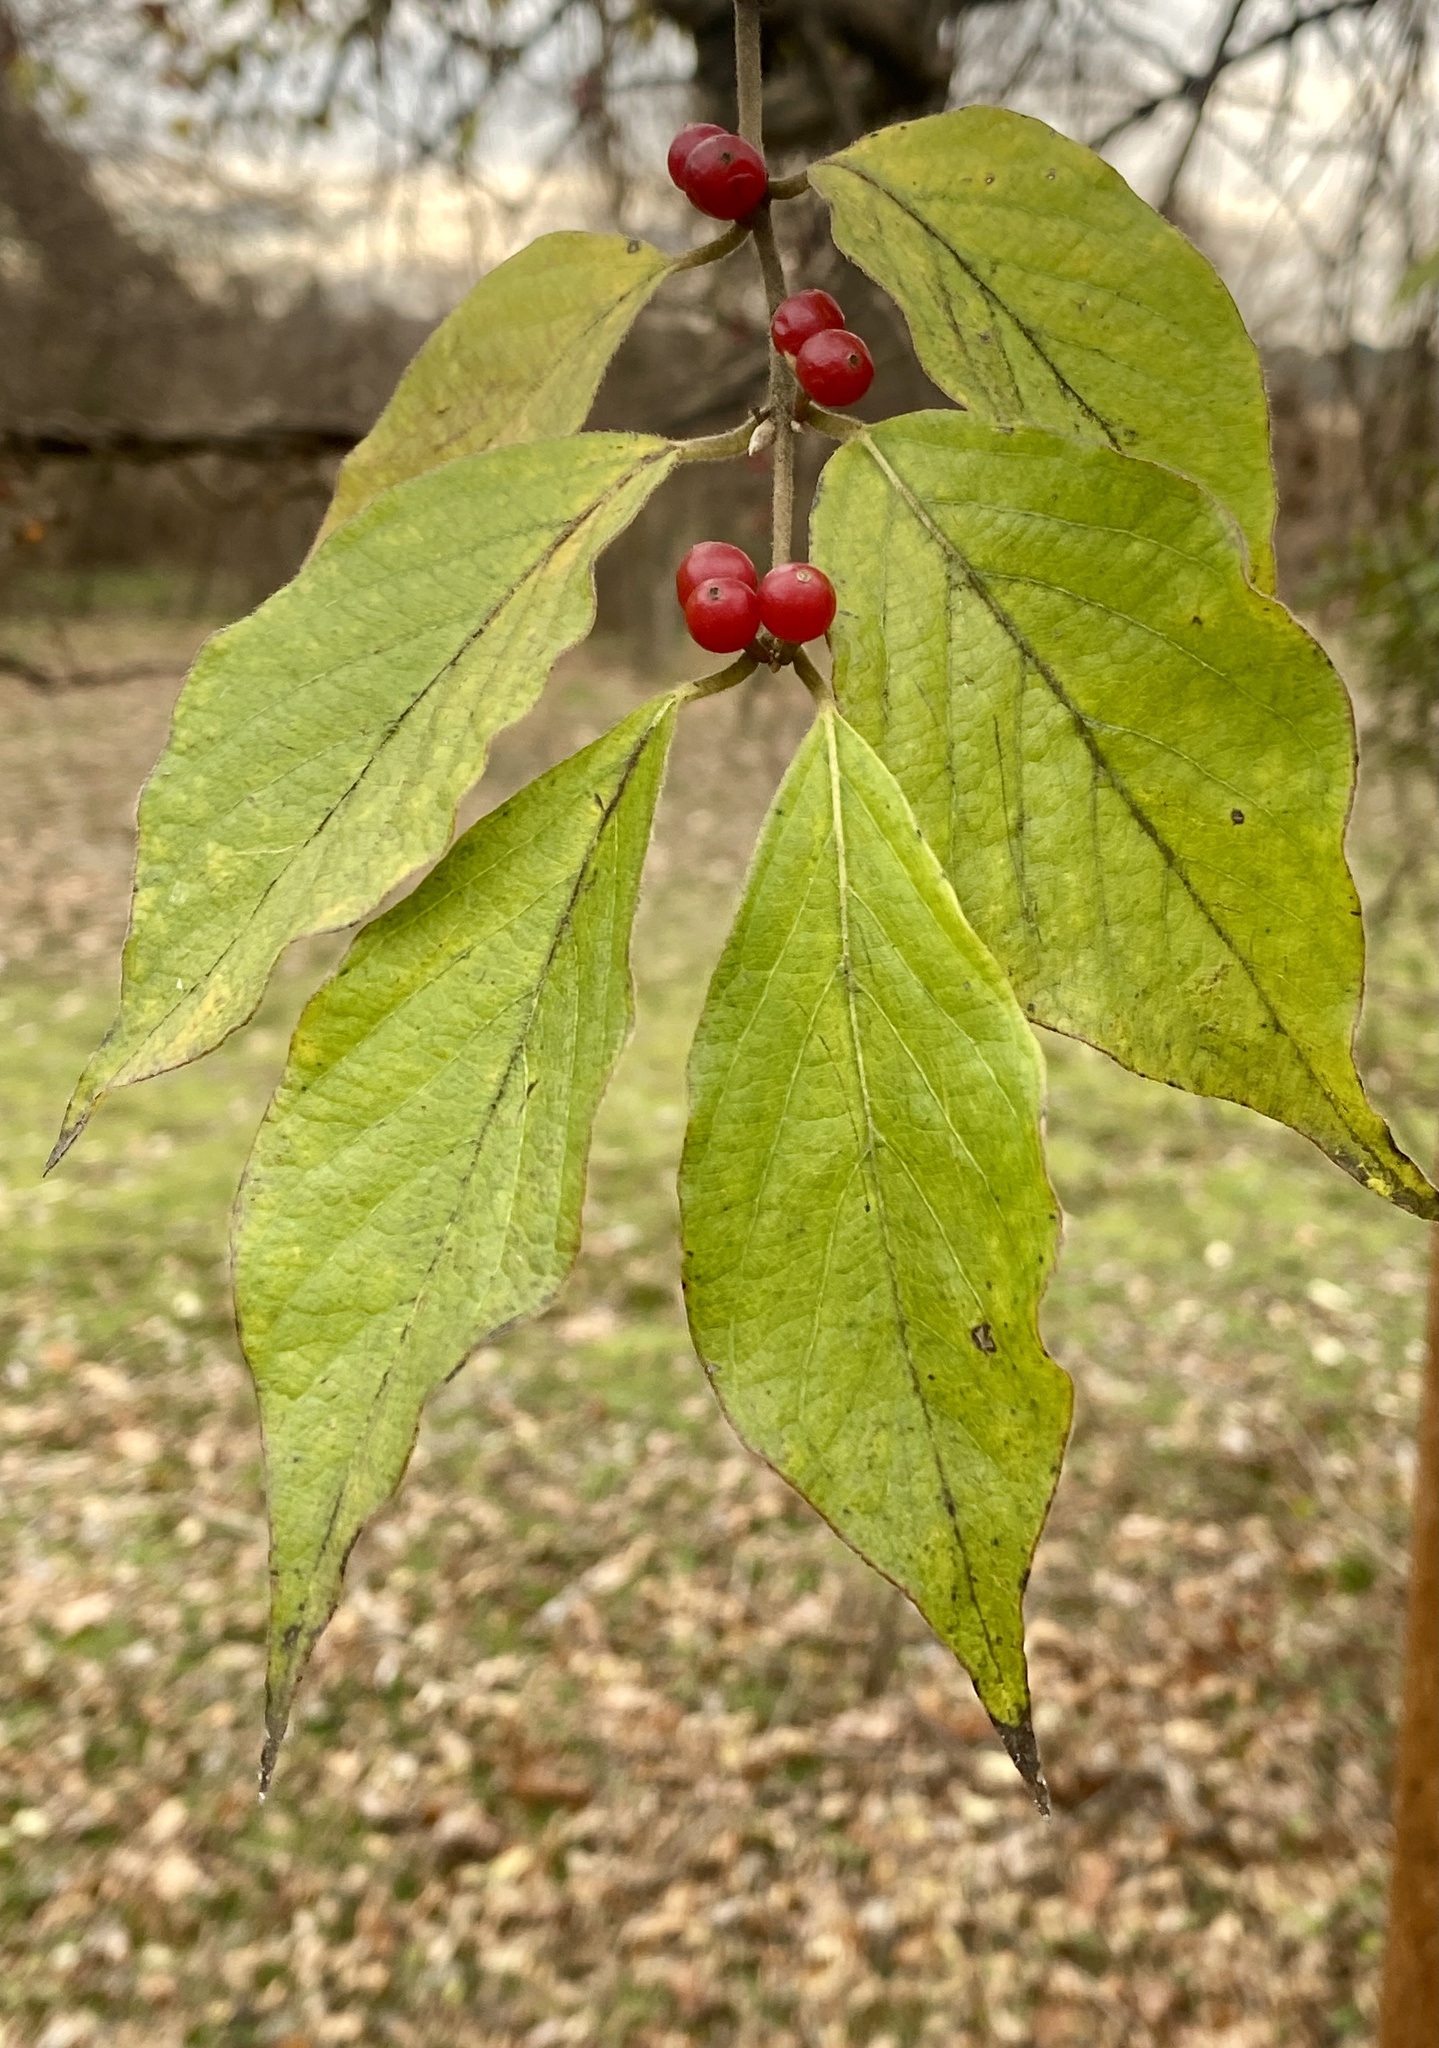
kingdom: Plantae
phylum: Tracheophyta
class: Magnoliopsida
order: Dipsacales
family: Caprifoliaceae
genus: Lonicera
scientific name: Lonicera maackii
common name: Amur honeysuckle
